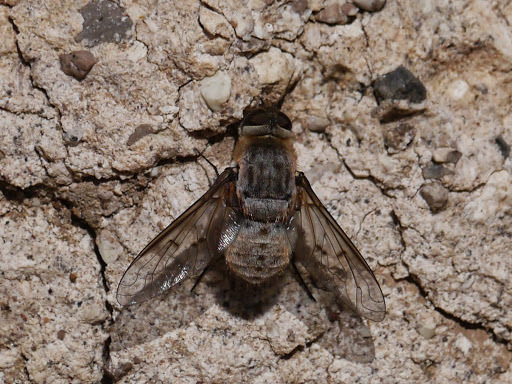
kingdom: Animalia
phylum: Arthropoda
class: Insecta
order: Diptera
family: Bombyliidae
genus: Paravilla
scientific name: Paravilla cinerea
